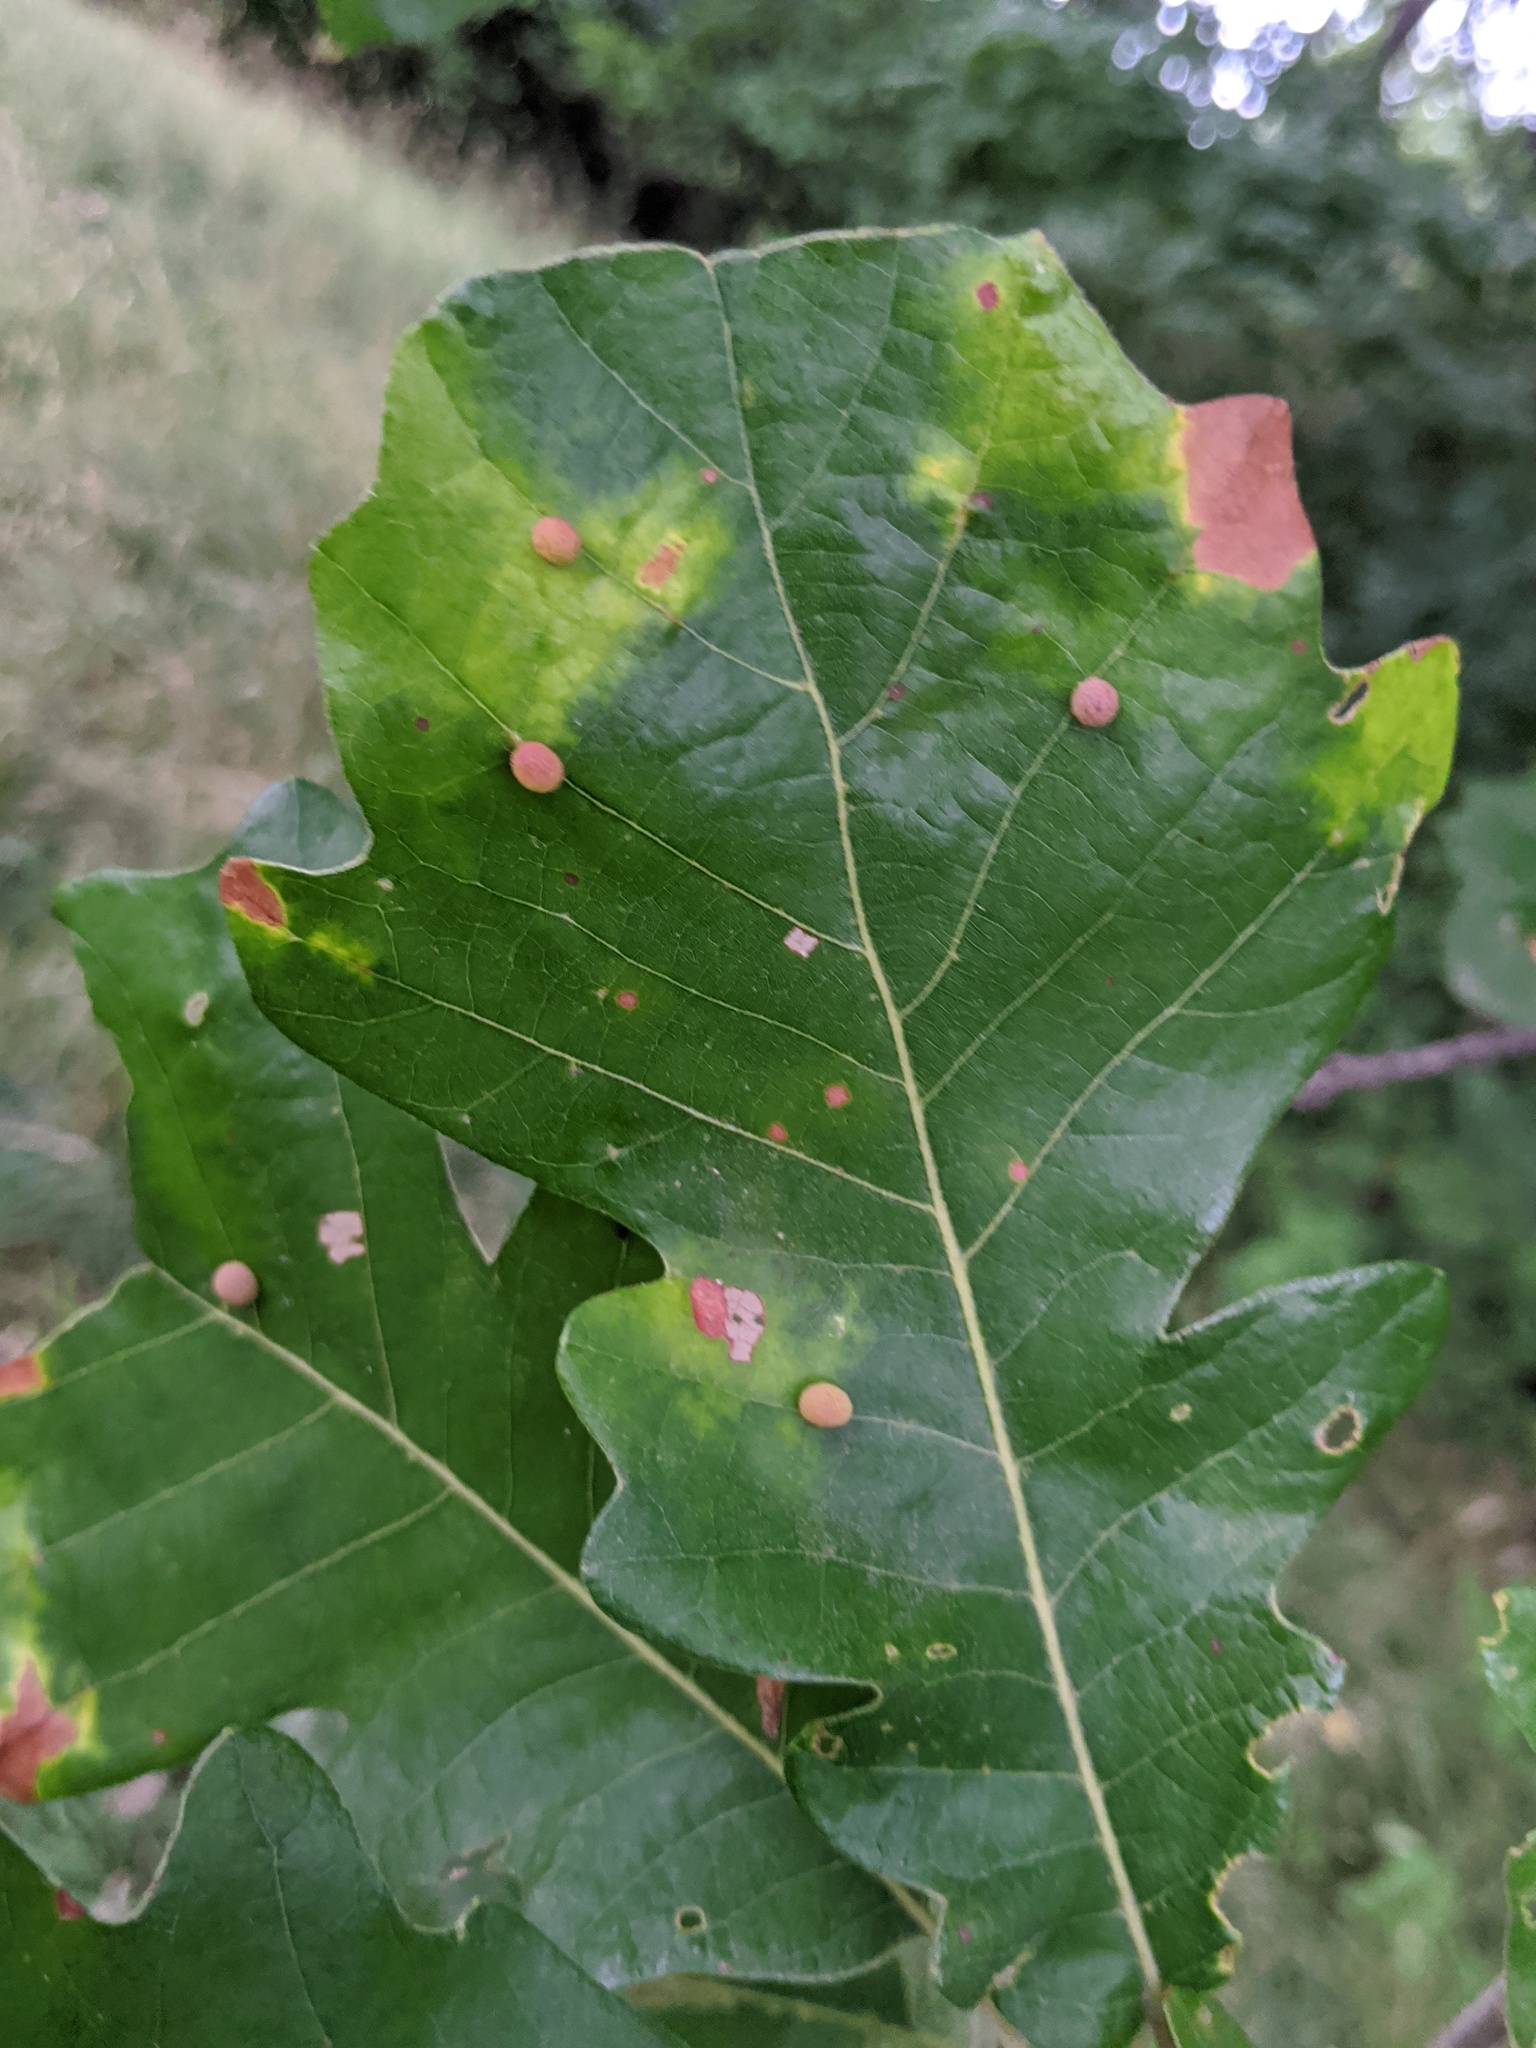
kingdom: Animalia
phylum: Arthropoda
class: Insecta
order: Hymenoptera
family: Cynipidae
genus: Acraspis
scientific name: Acraspis quercushirta
